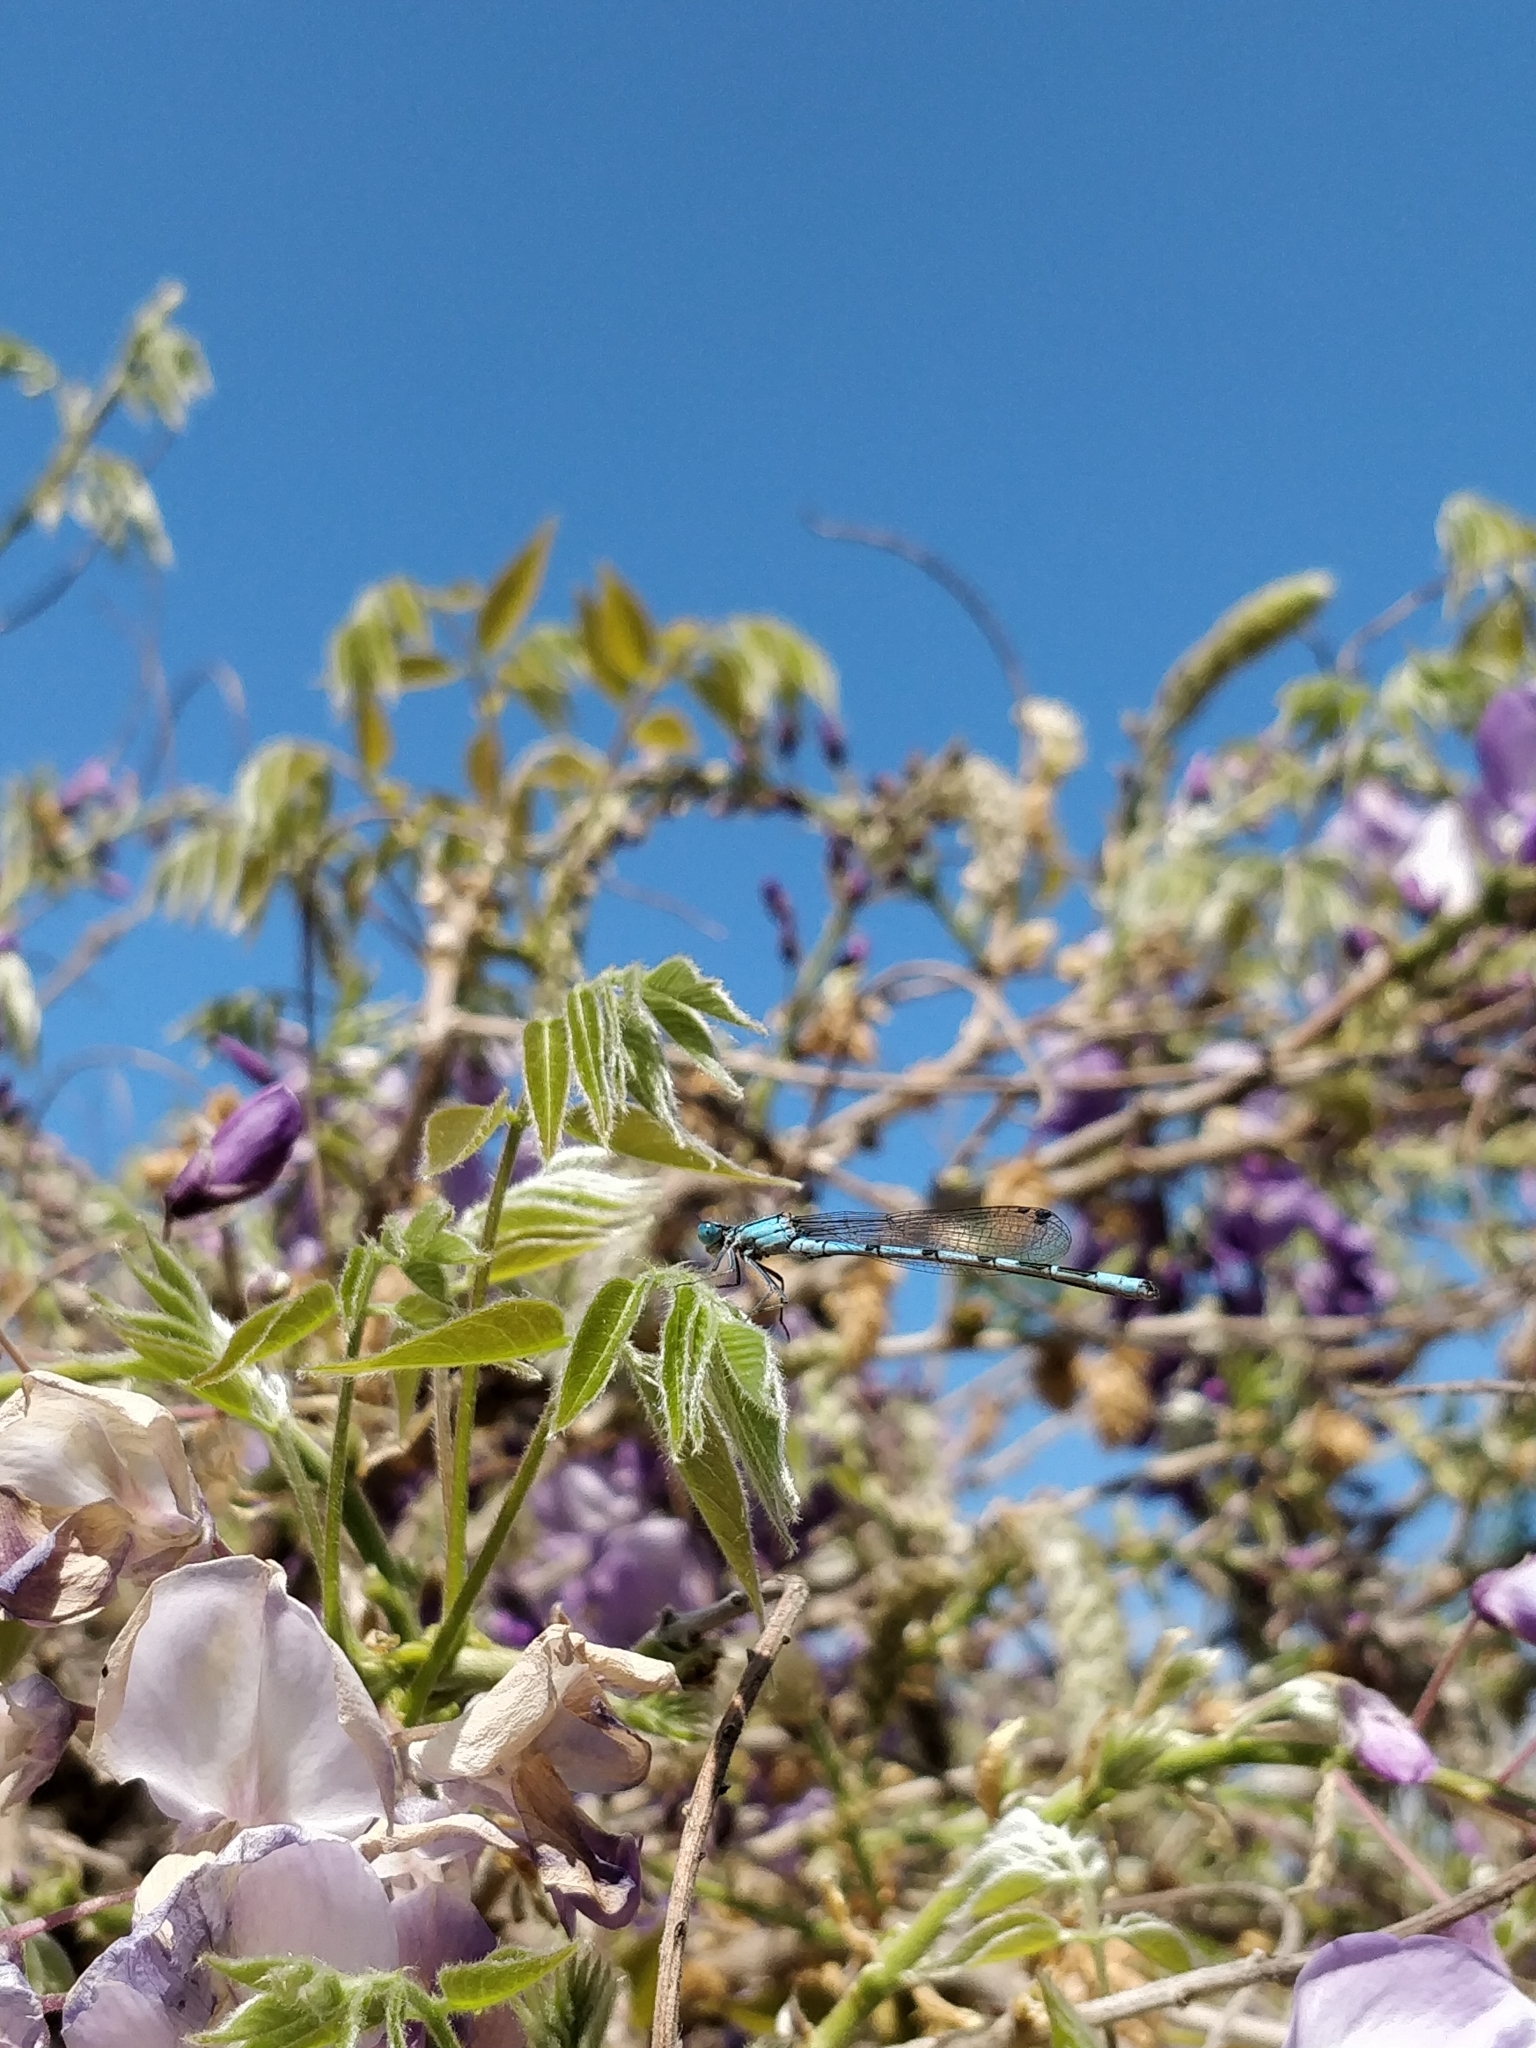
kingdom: Animalia
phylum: Arthropoda
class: Insecta
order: Odonata
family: Coenagrionidae
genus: Enallagma
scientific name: Enallagma cyathigerum
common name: Common blue damselfly
